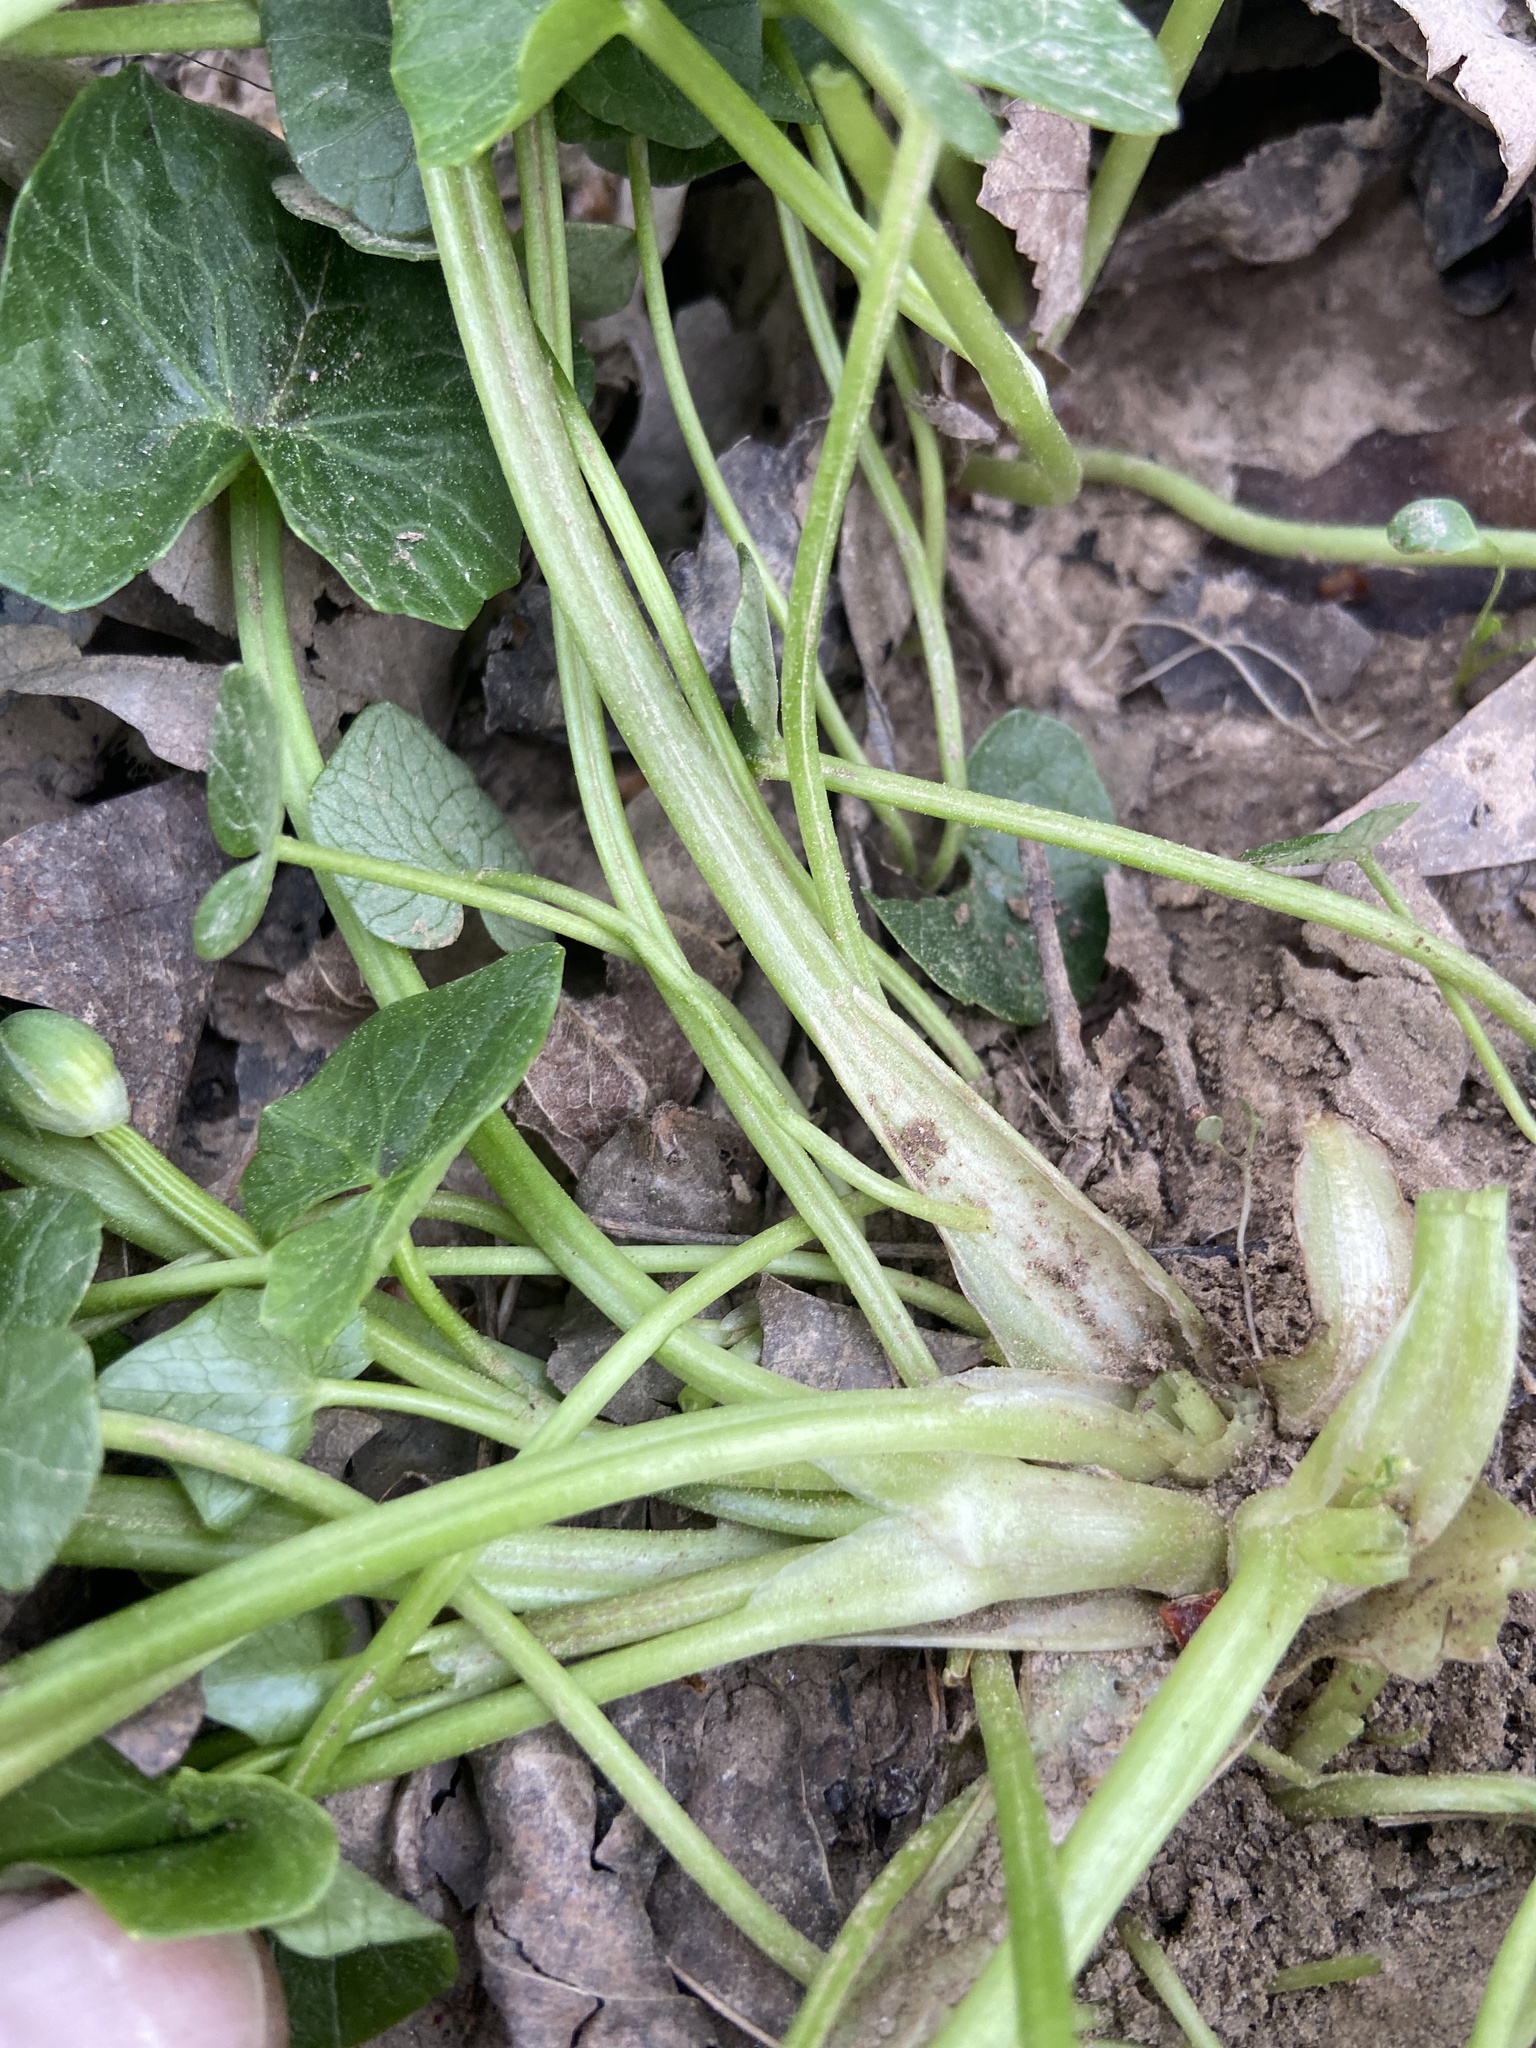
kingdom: Plantae
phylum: Tracheophyta
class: Magnoliopsida
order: Ranunculales
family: Ranunculaceae
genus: Ficaria
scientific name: Ficaria verna
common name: Lesser celandine
